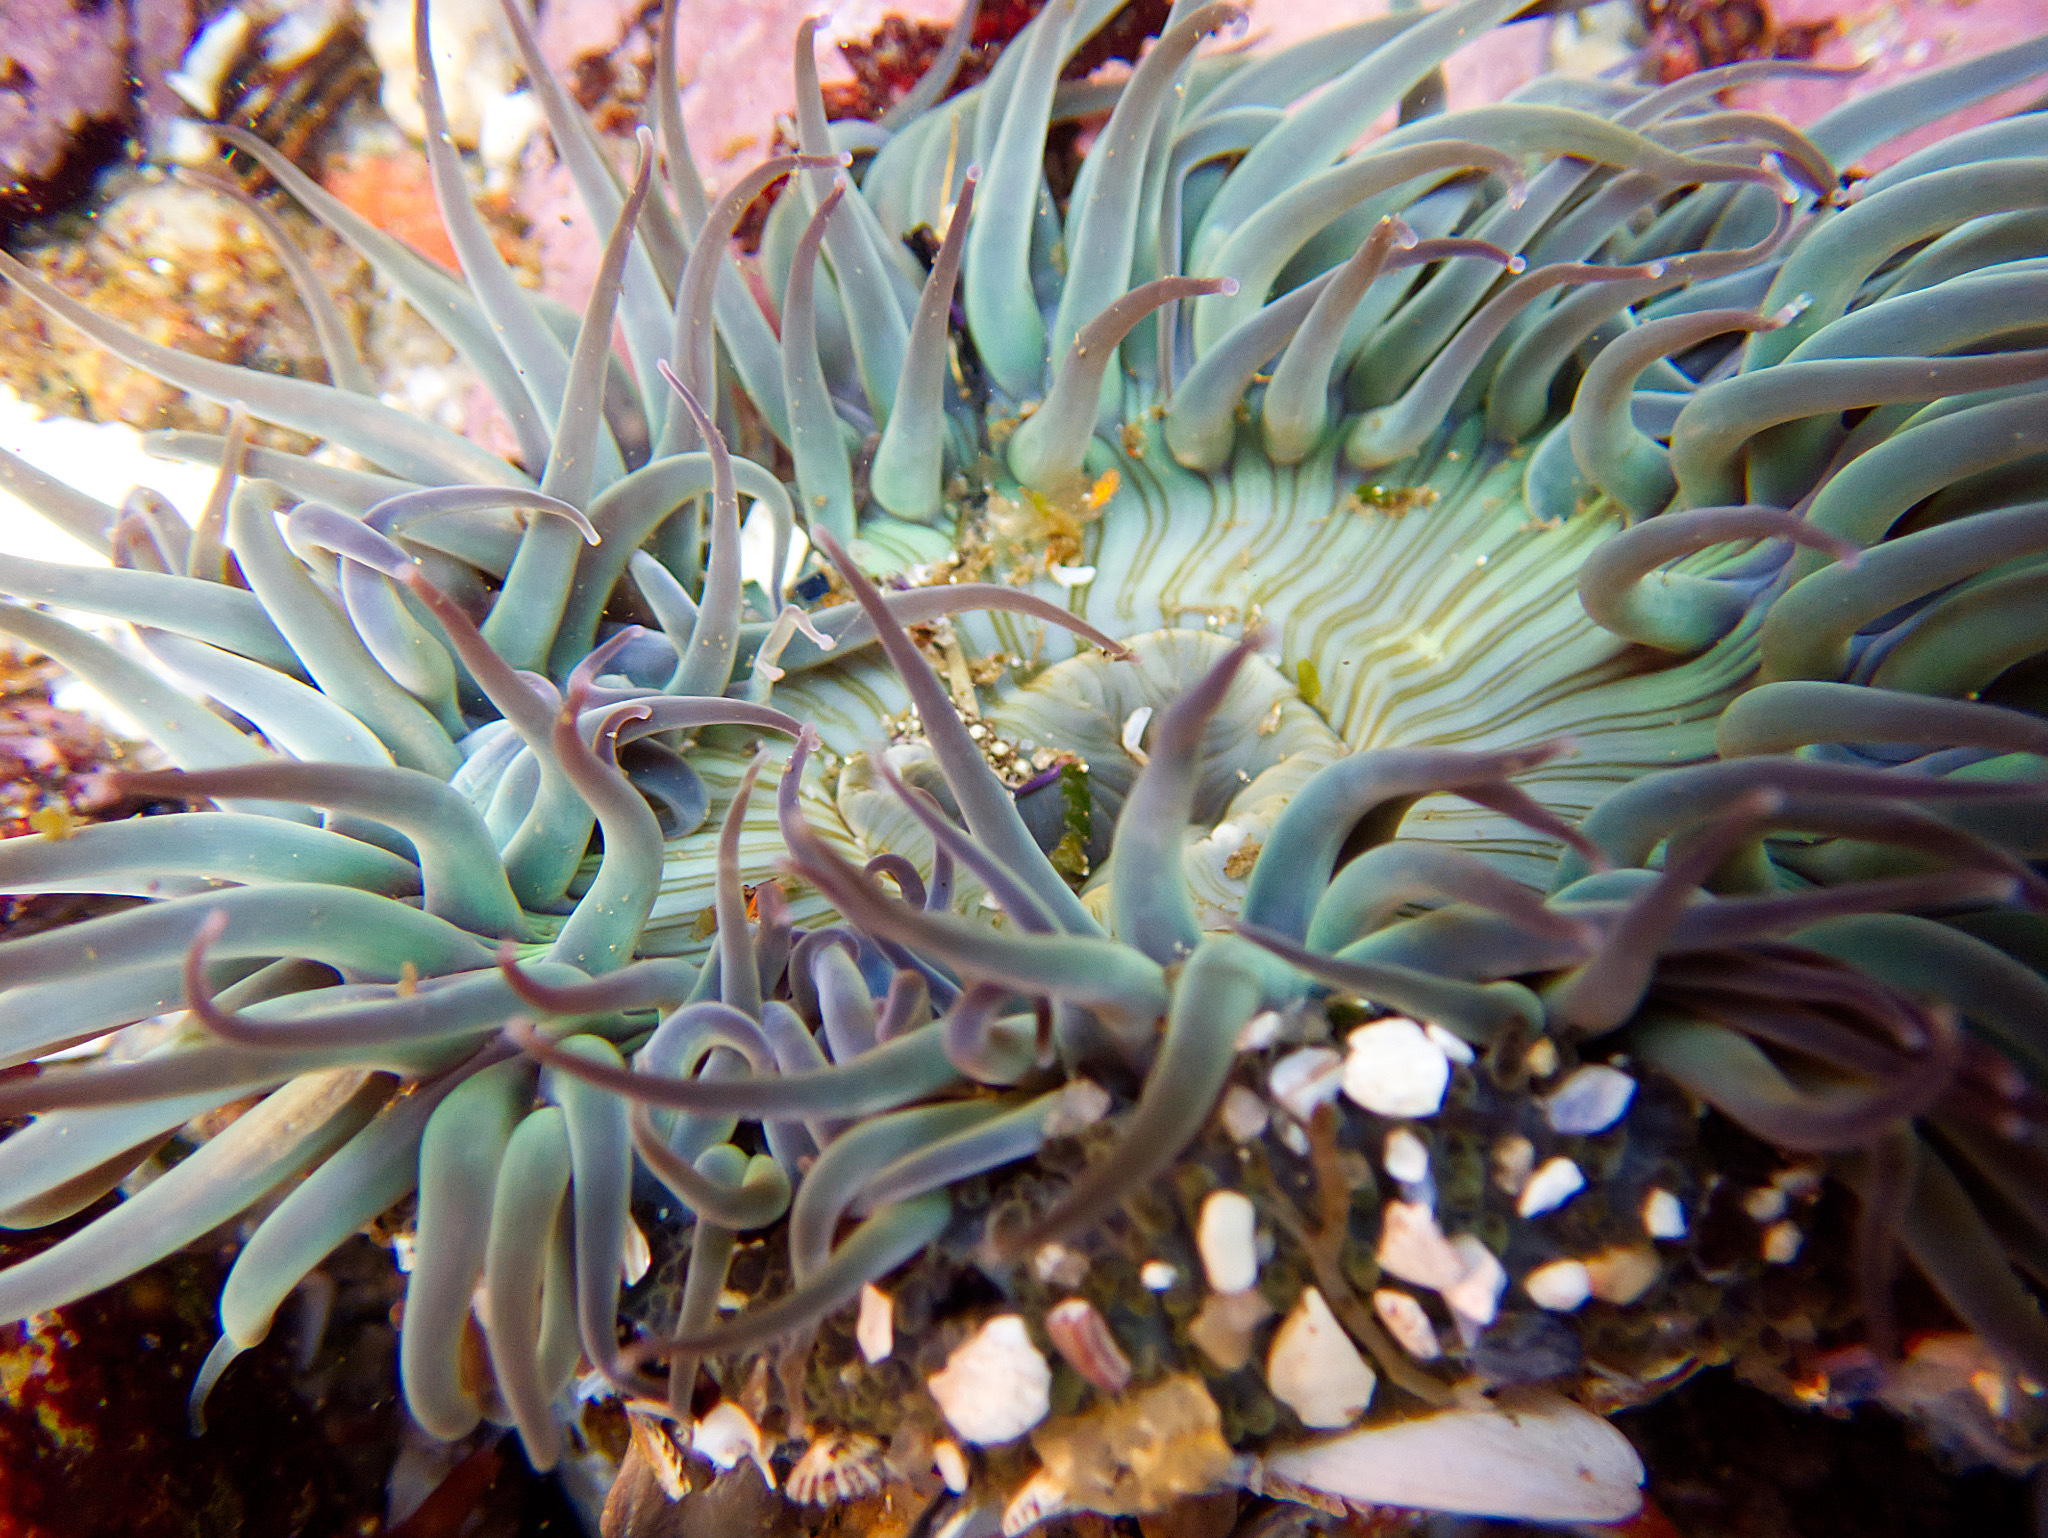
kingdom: Animalia
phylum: Cnidaria
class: Anthozoa
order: Actiniaria
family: Actiniidae
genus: Anthopleura
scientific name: Anthopleura sola
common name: Sun anemone
